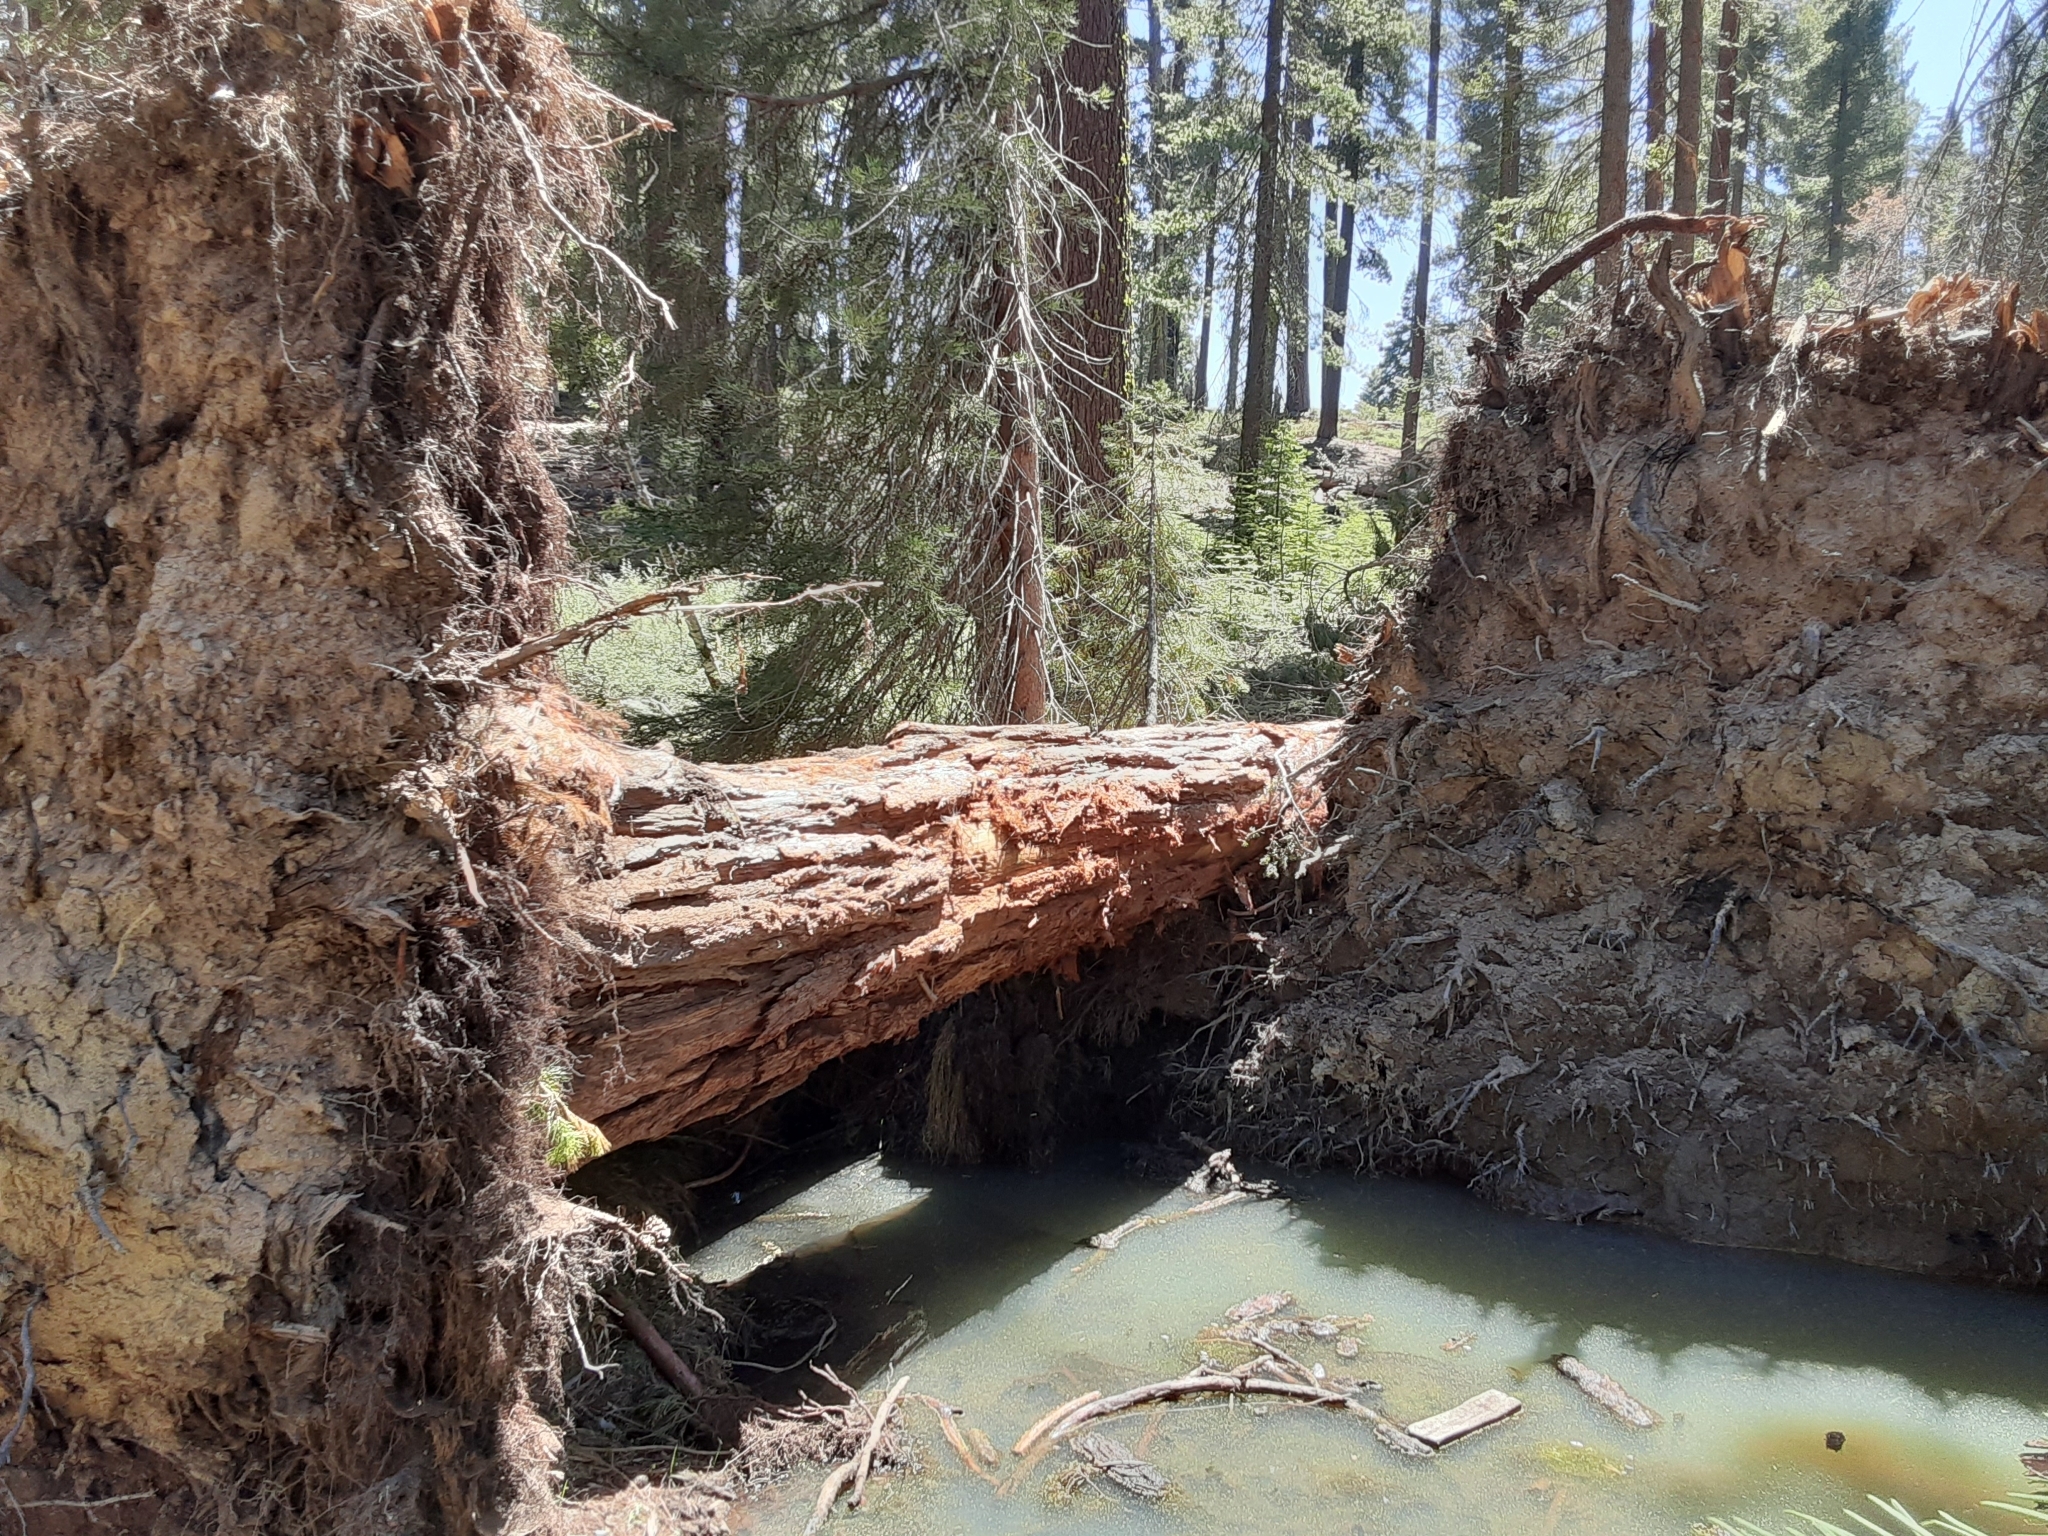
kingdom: Plantae
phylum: Tracheophyta
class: Pinopsida
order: Pinales
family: Cupressaceae
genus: Sequoiadendron
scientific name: Sequoiadendron giganteum
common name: Wellingtonia
